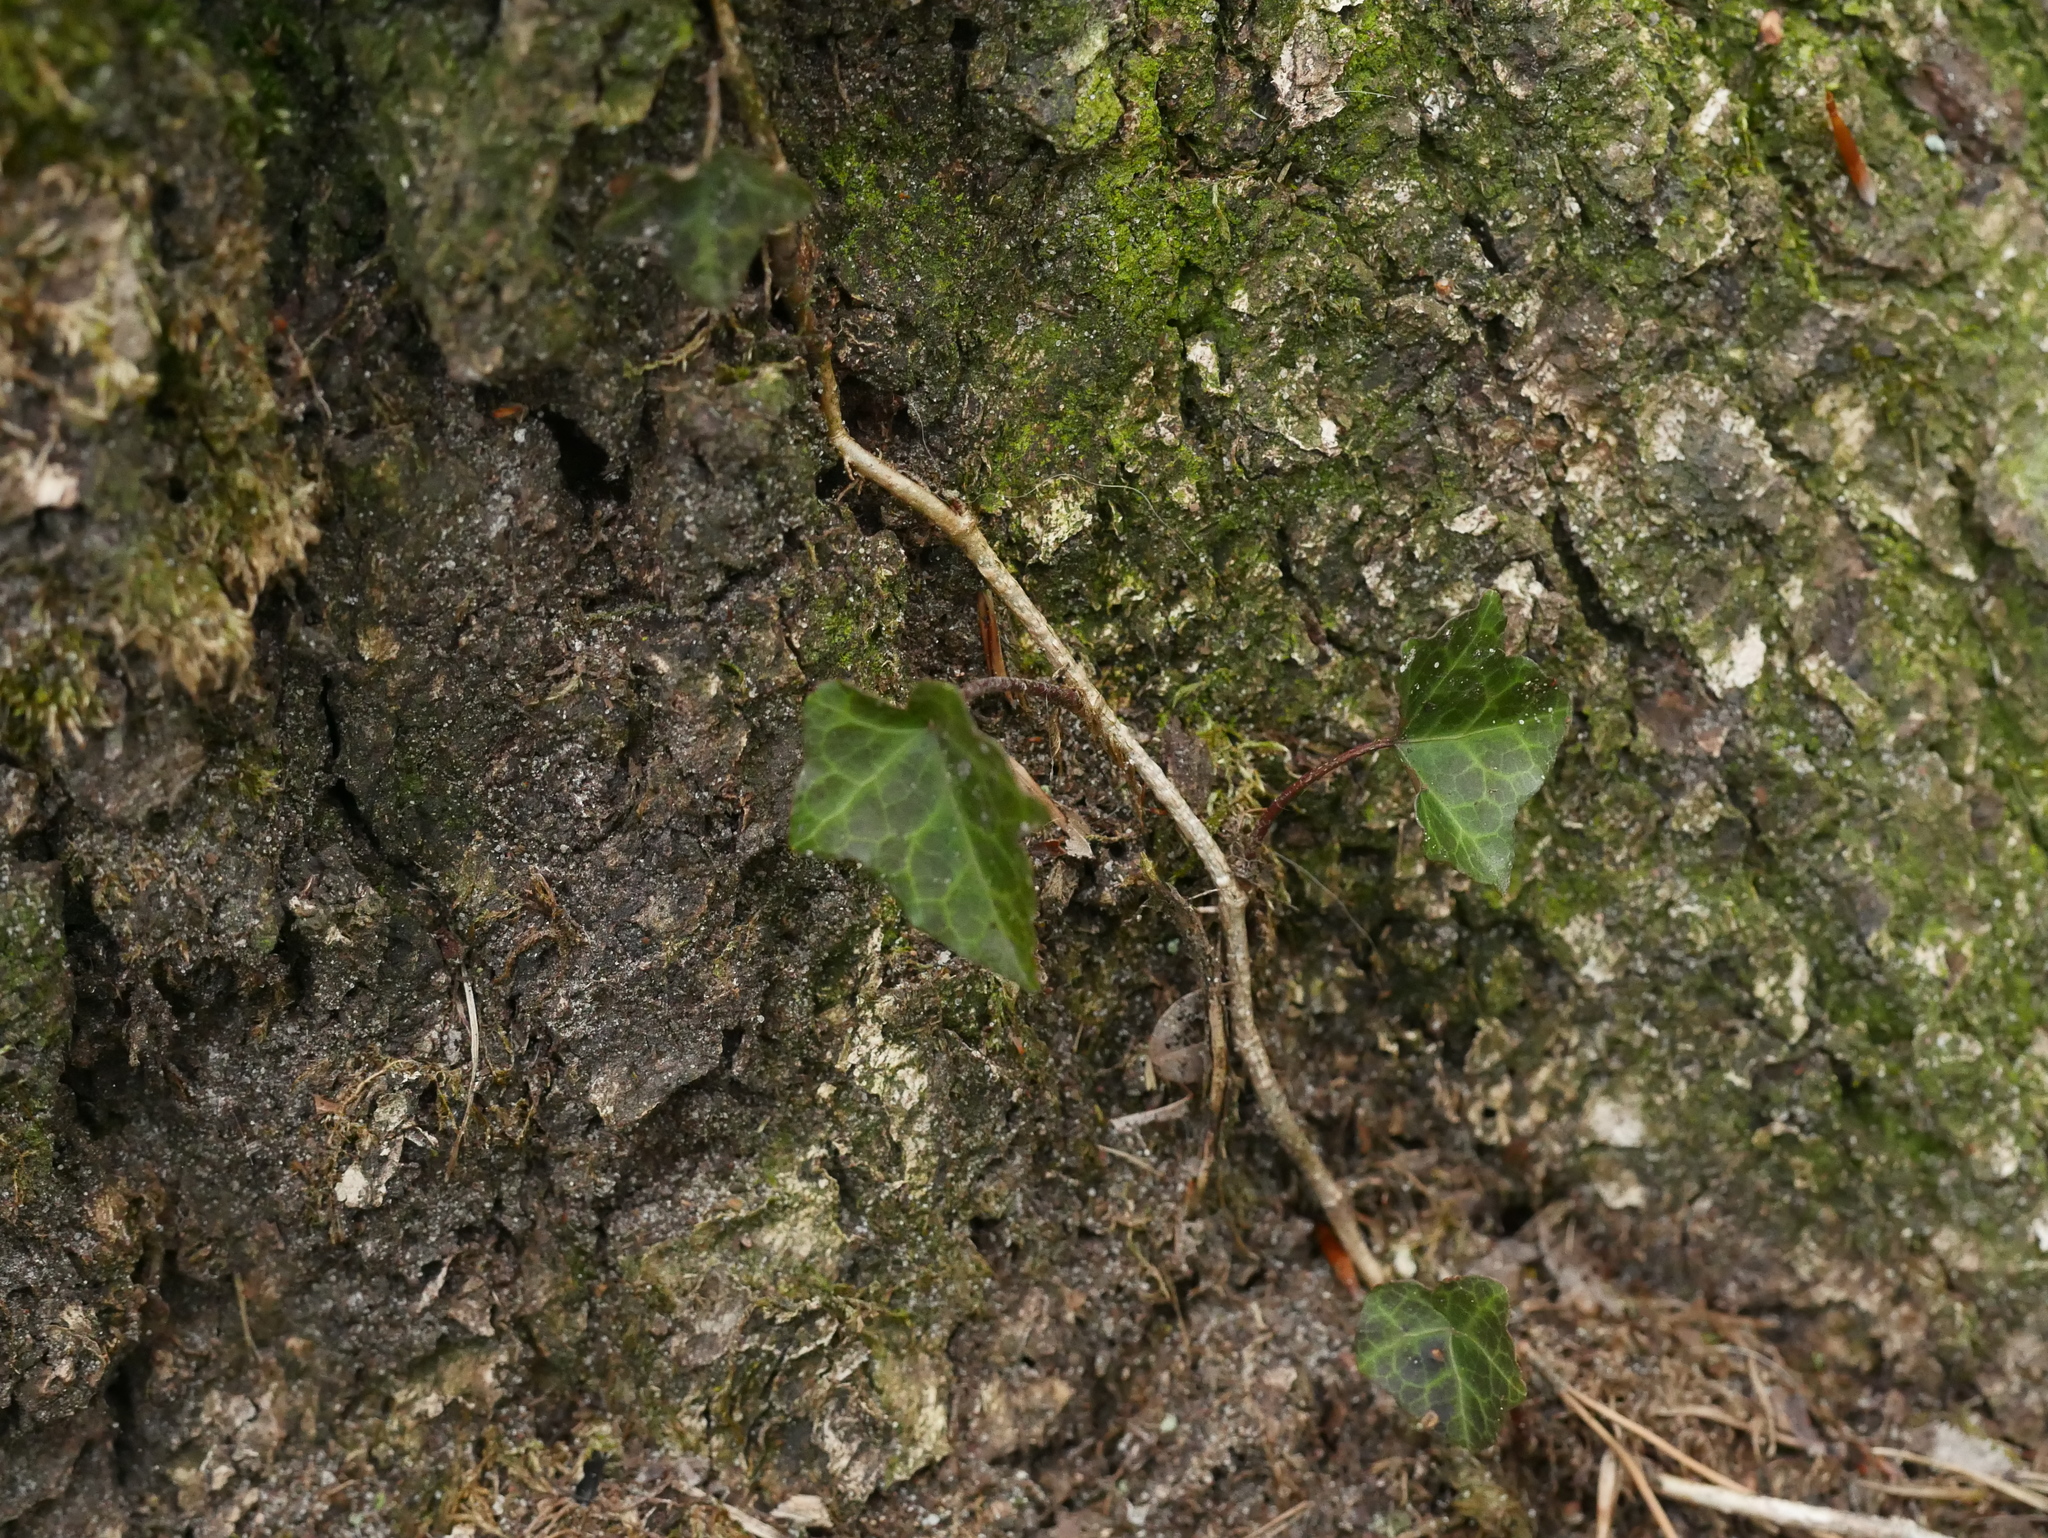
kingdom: Plantae
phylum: Tracheophyta
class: Magnoliopsida
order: Apiales
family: Araliaceae
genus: Hedera
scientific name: Hedera helix
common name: Ivy
